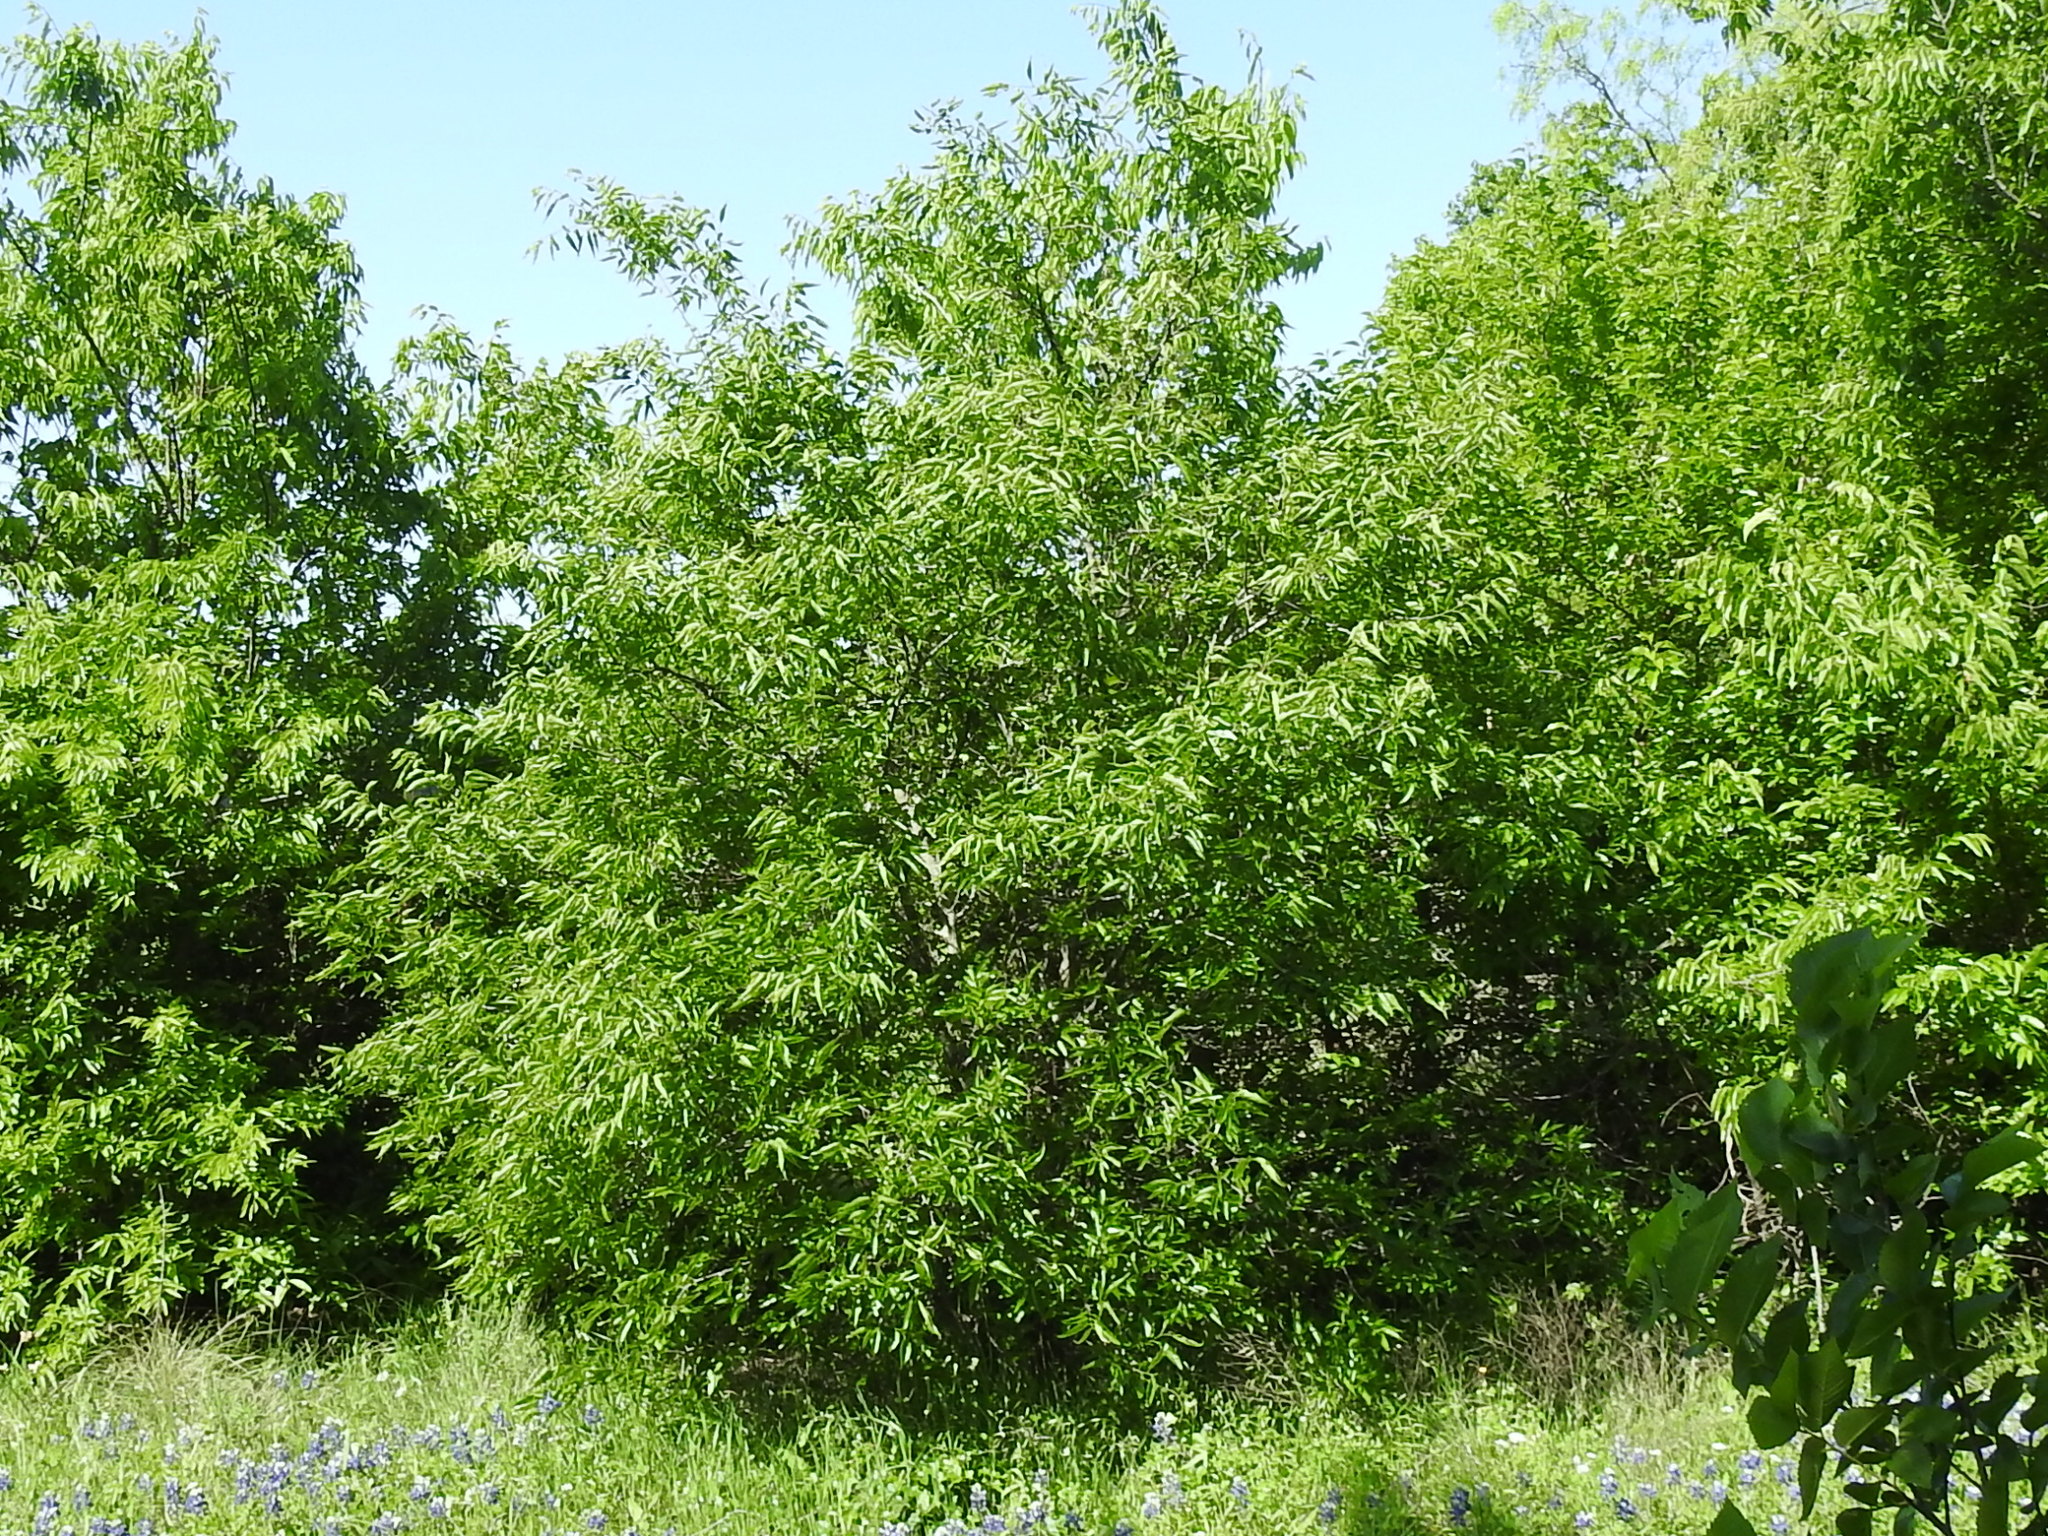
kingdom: Plantae
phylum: Tracheophyta
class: Magnoliopsida
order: Rosales
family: Cannabaceae
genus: Celtis
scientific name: Celtis laevigata
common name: Sugarberry
